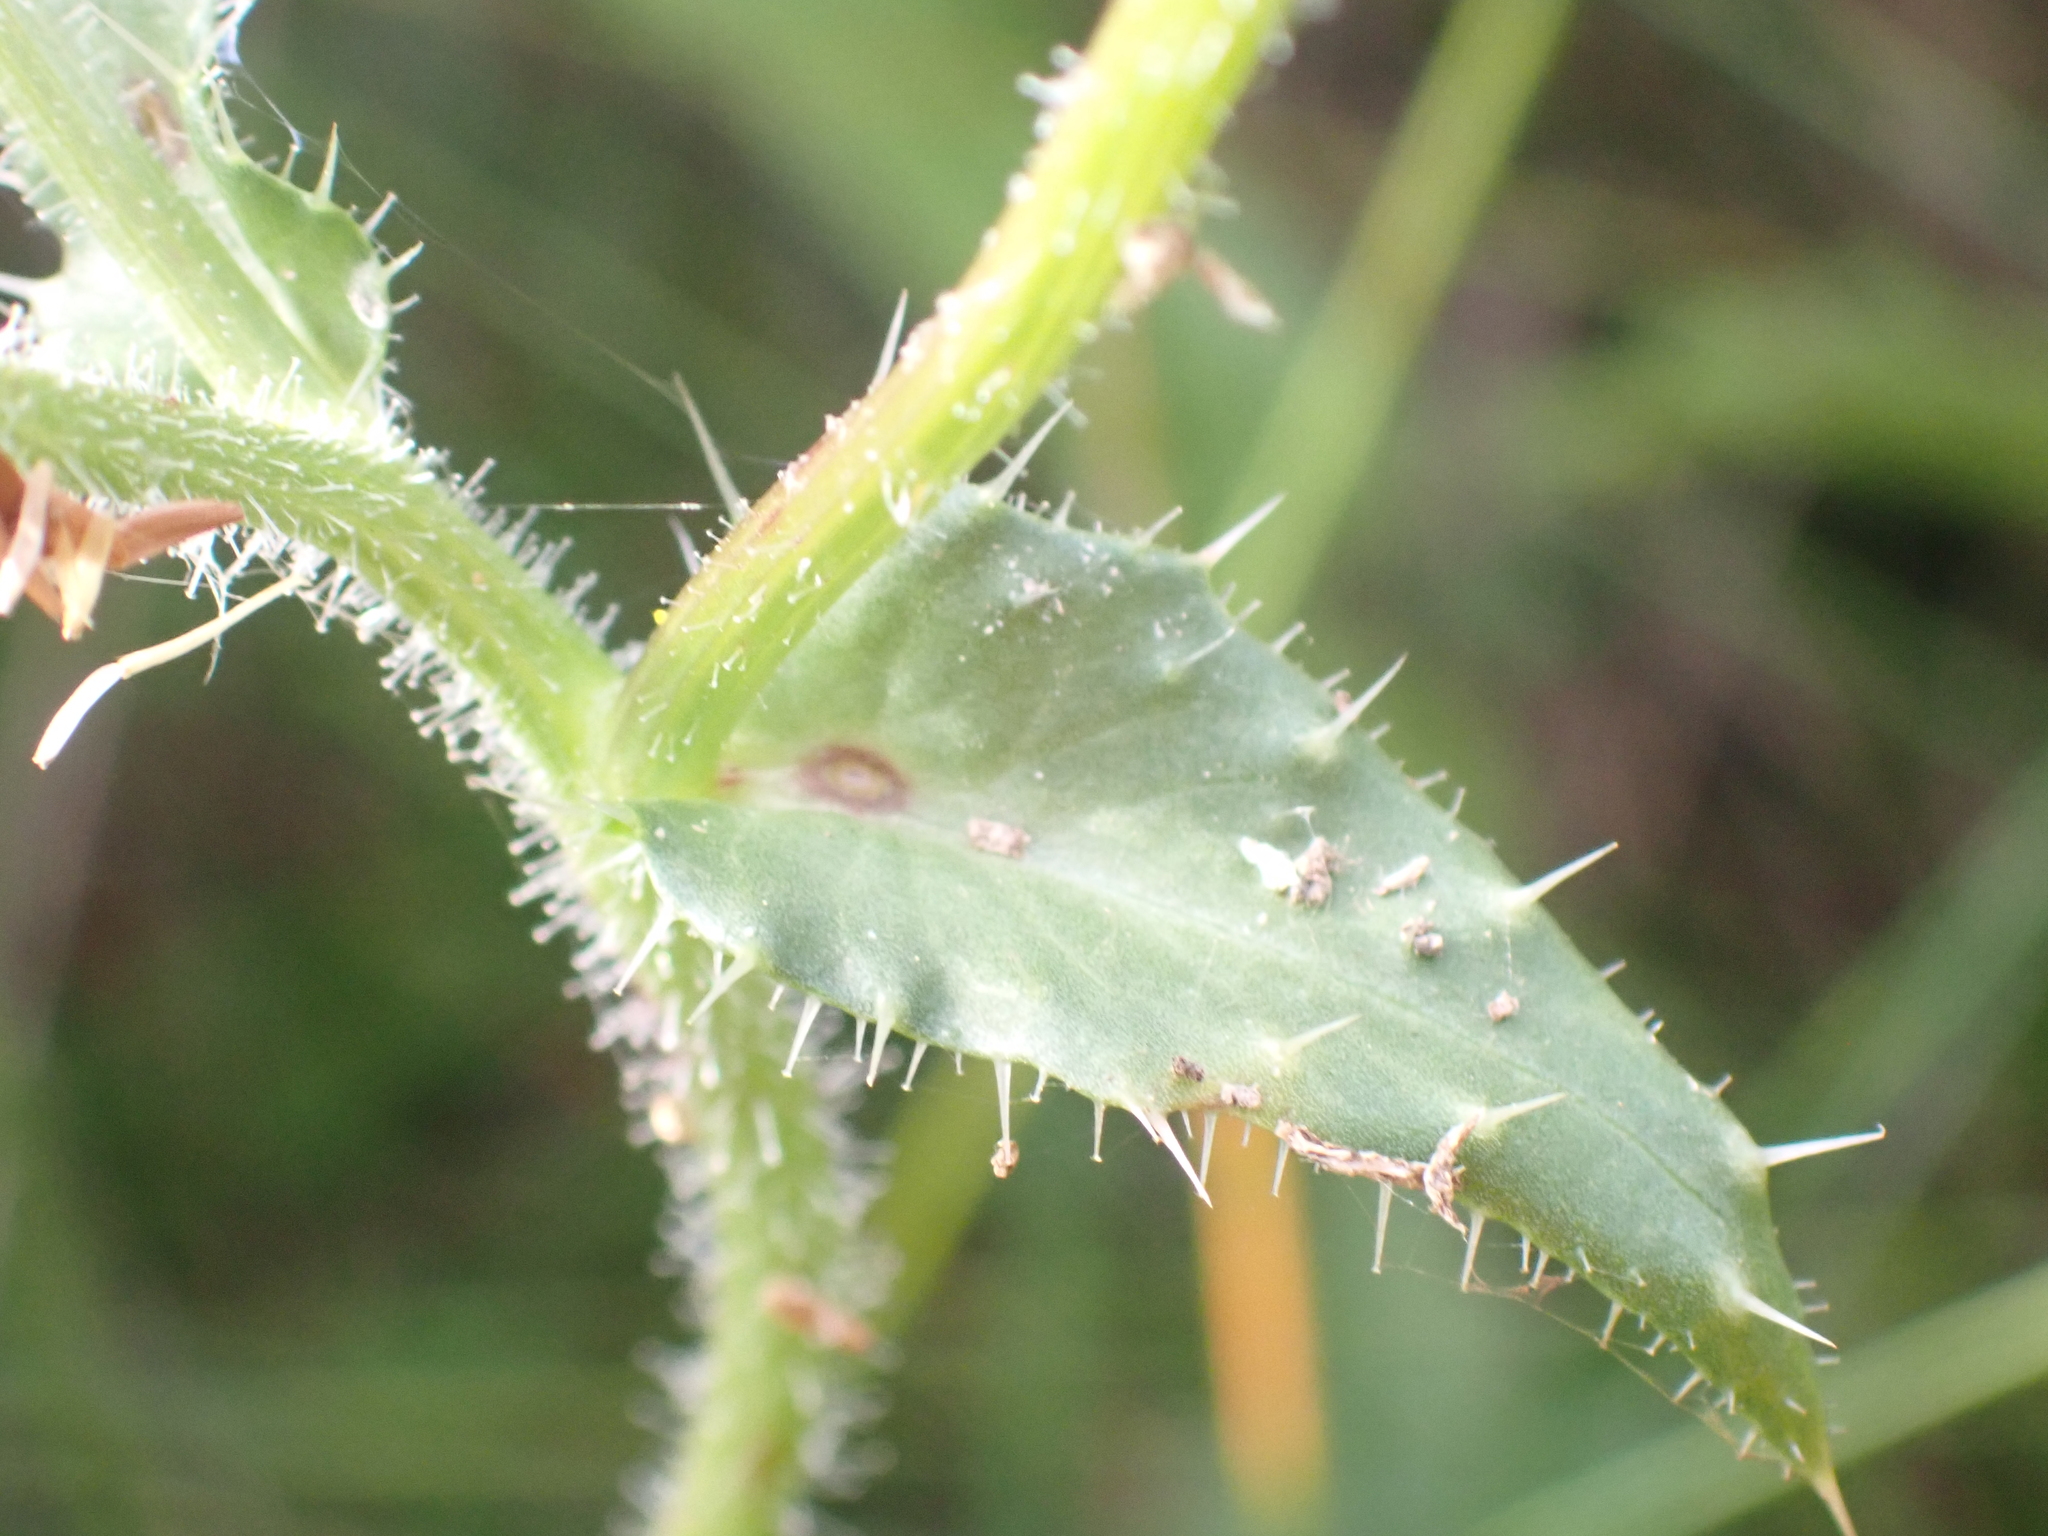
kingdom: Plantae
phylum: Tracheophyta
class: Magnoliopsida
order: Asterales
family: Asteraceae
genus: Helminthotheca
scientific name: Helminthotheca echioides
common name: Ox-tongue
